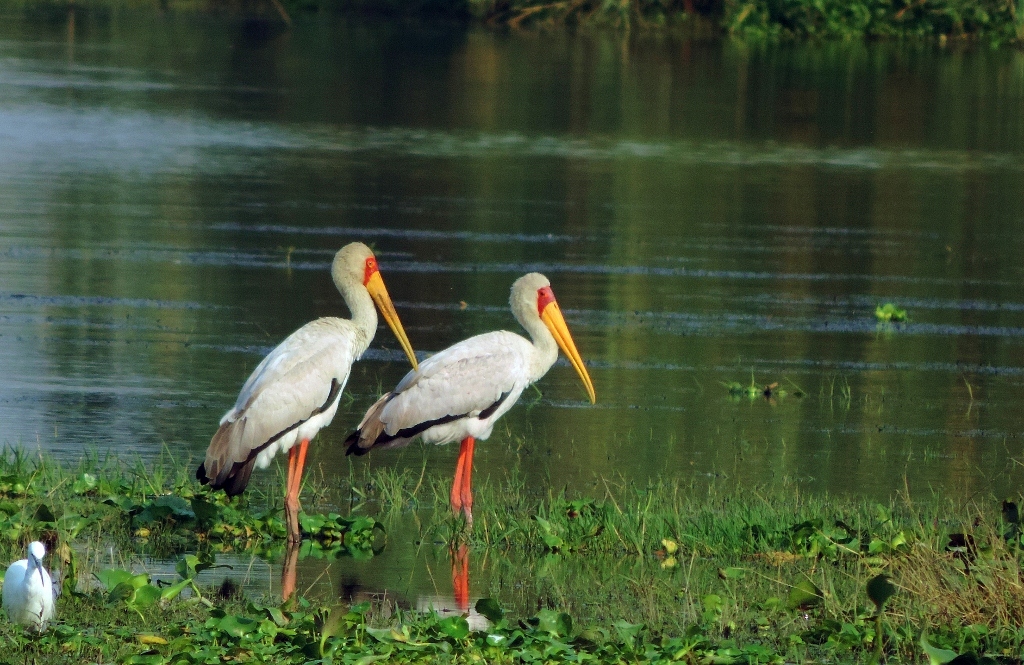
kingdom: Animalia
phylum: Chordata
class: Aves
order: Ciconiiformes
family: Ciconiidae
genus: Mycteria
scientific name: Mycteria ibis
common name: Yellow-billed stork
